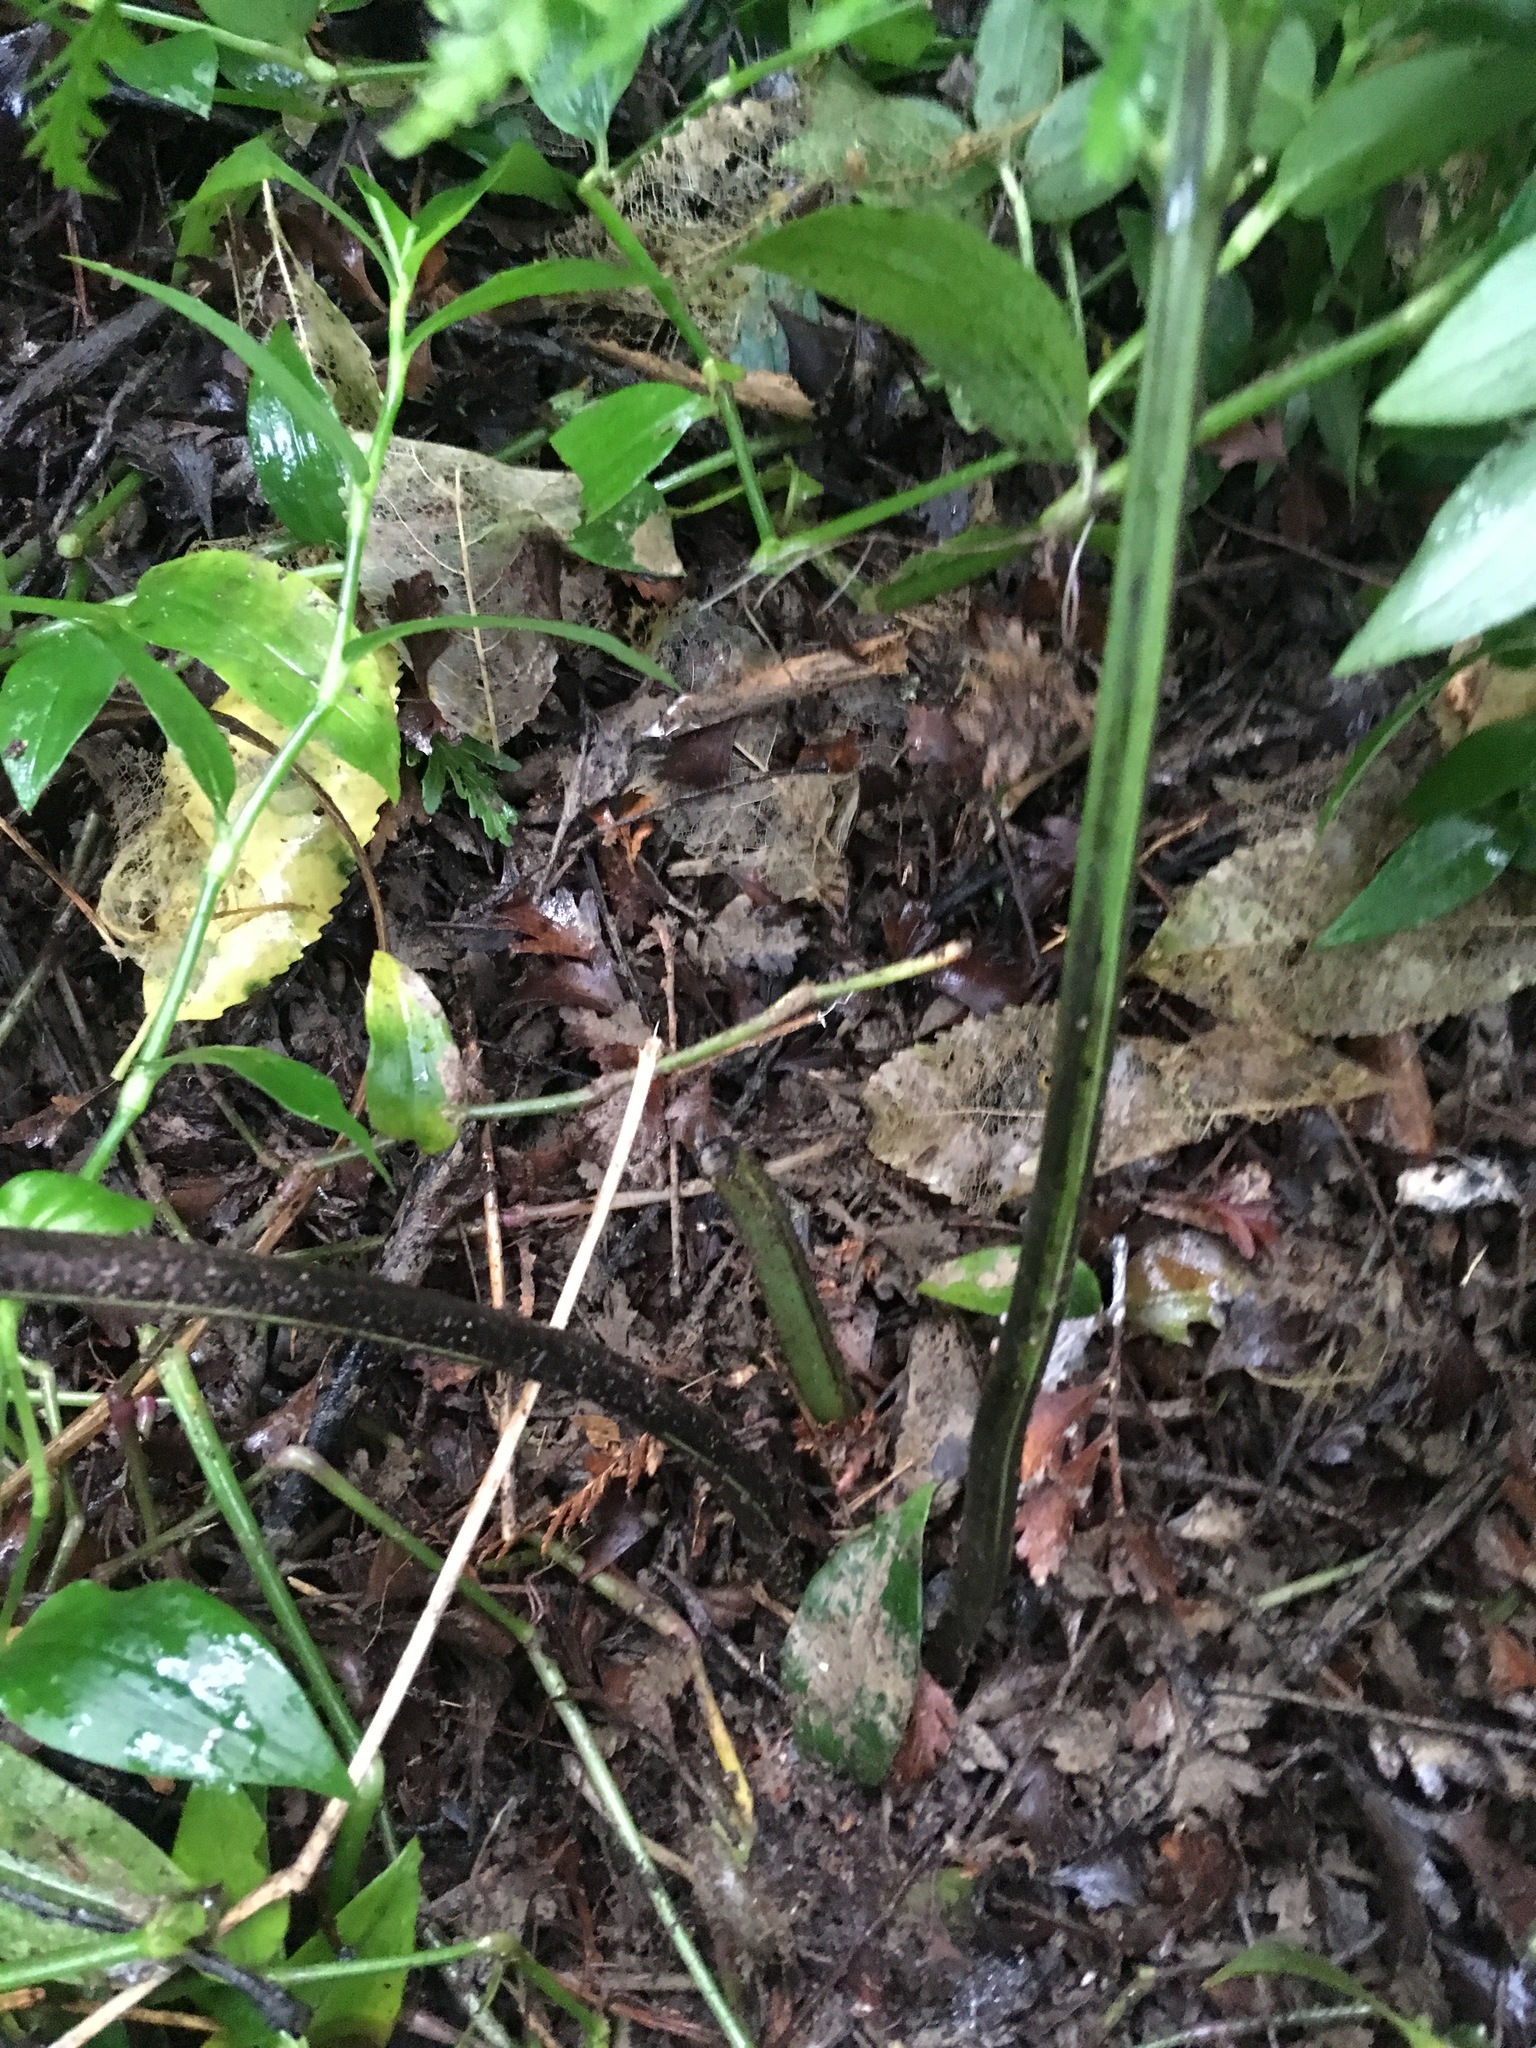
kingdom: Plantae
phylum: Tracheophyta
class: Polypodiopsida
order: Polypodiales
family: Aspleniaceae
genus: Asplenium
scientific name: Asplenium lucrosum
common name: False hen-and-chickens fern
